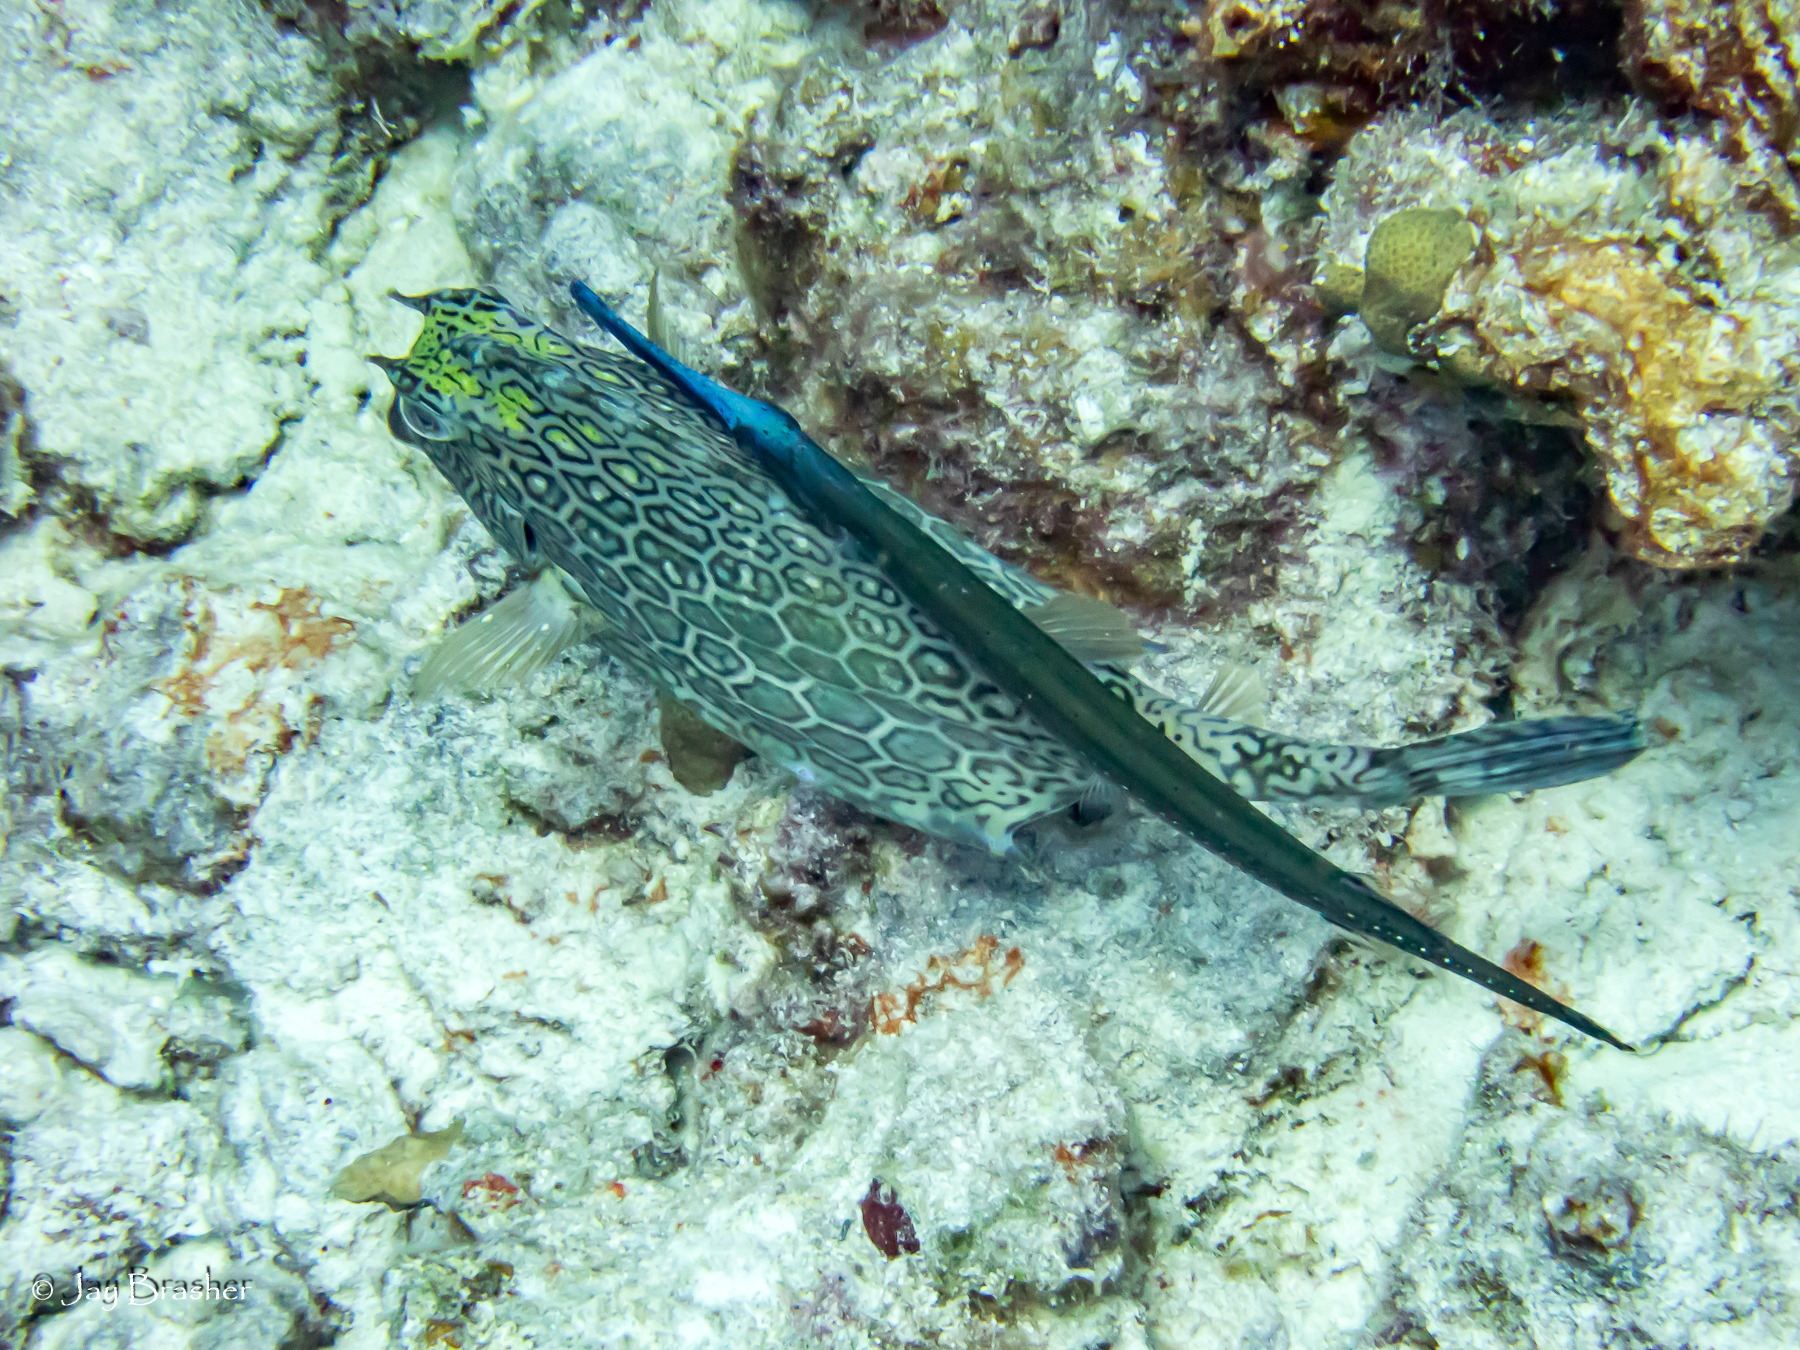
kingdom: Animalia
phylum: Chordata
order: Tetraodontiformes
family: Ostraciidae
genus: Acanthostracion
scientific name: Acanthostracion polygonius
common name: Honeycomb cowfish
